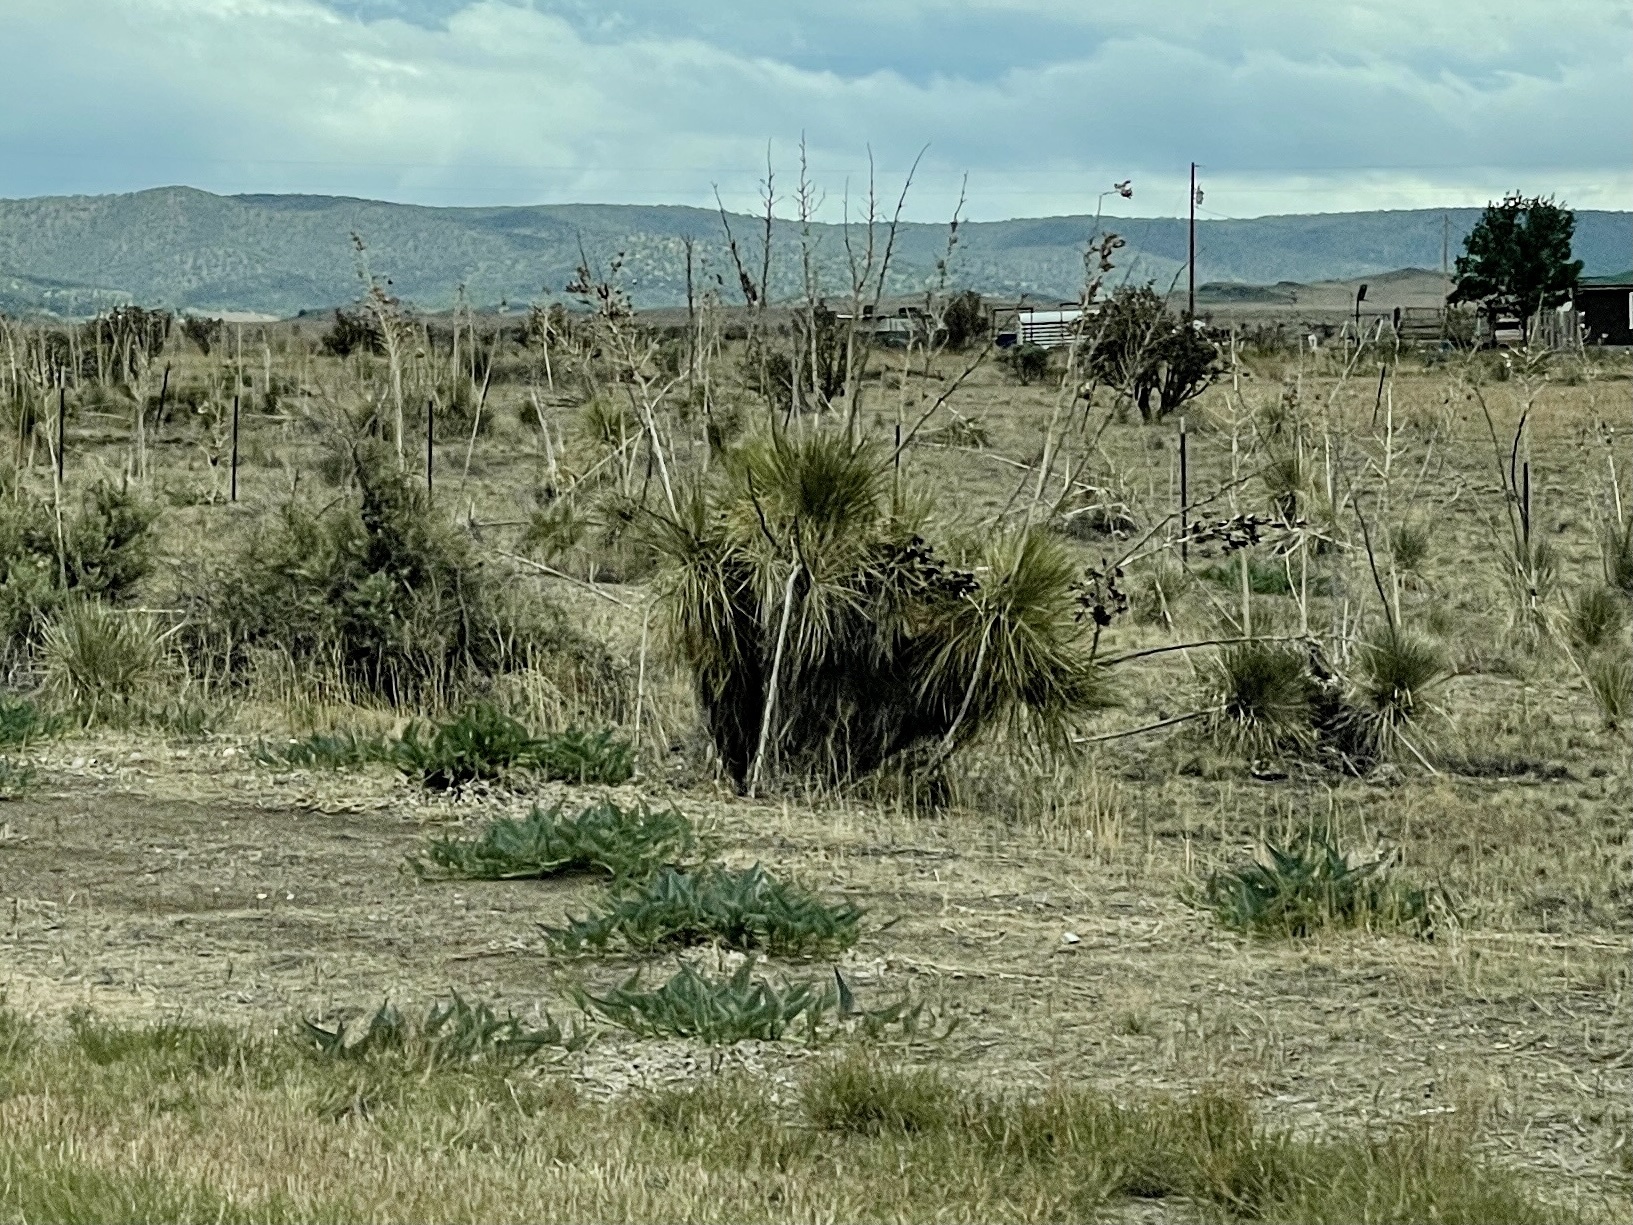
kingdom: Plantae
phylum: Tracheophyta
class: Liliopsida
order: Asparagales
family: Asparagaceae
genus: Yucca
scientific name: Yucca elata
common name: Palmella
